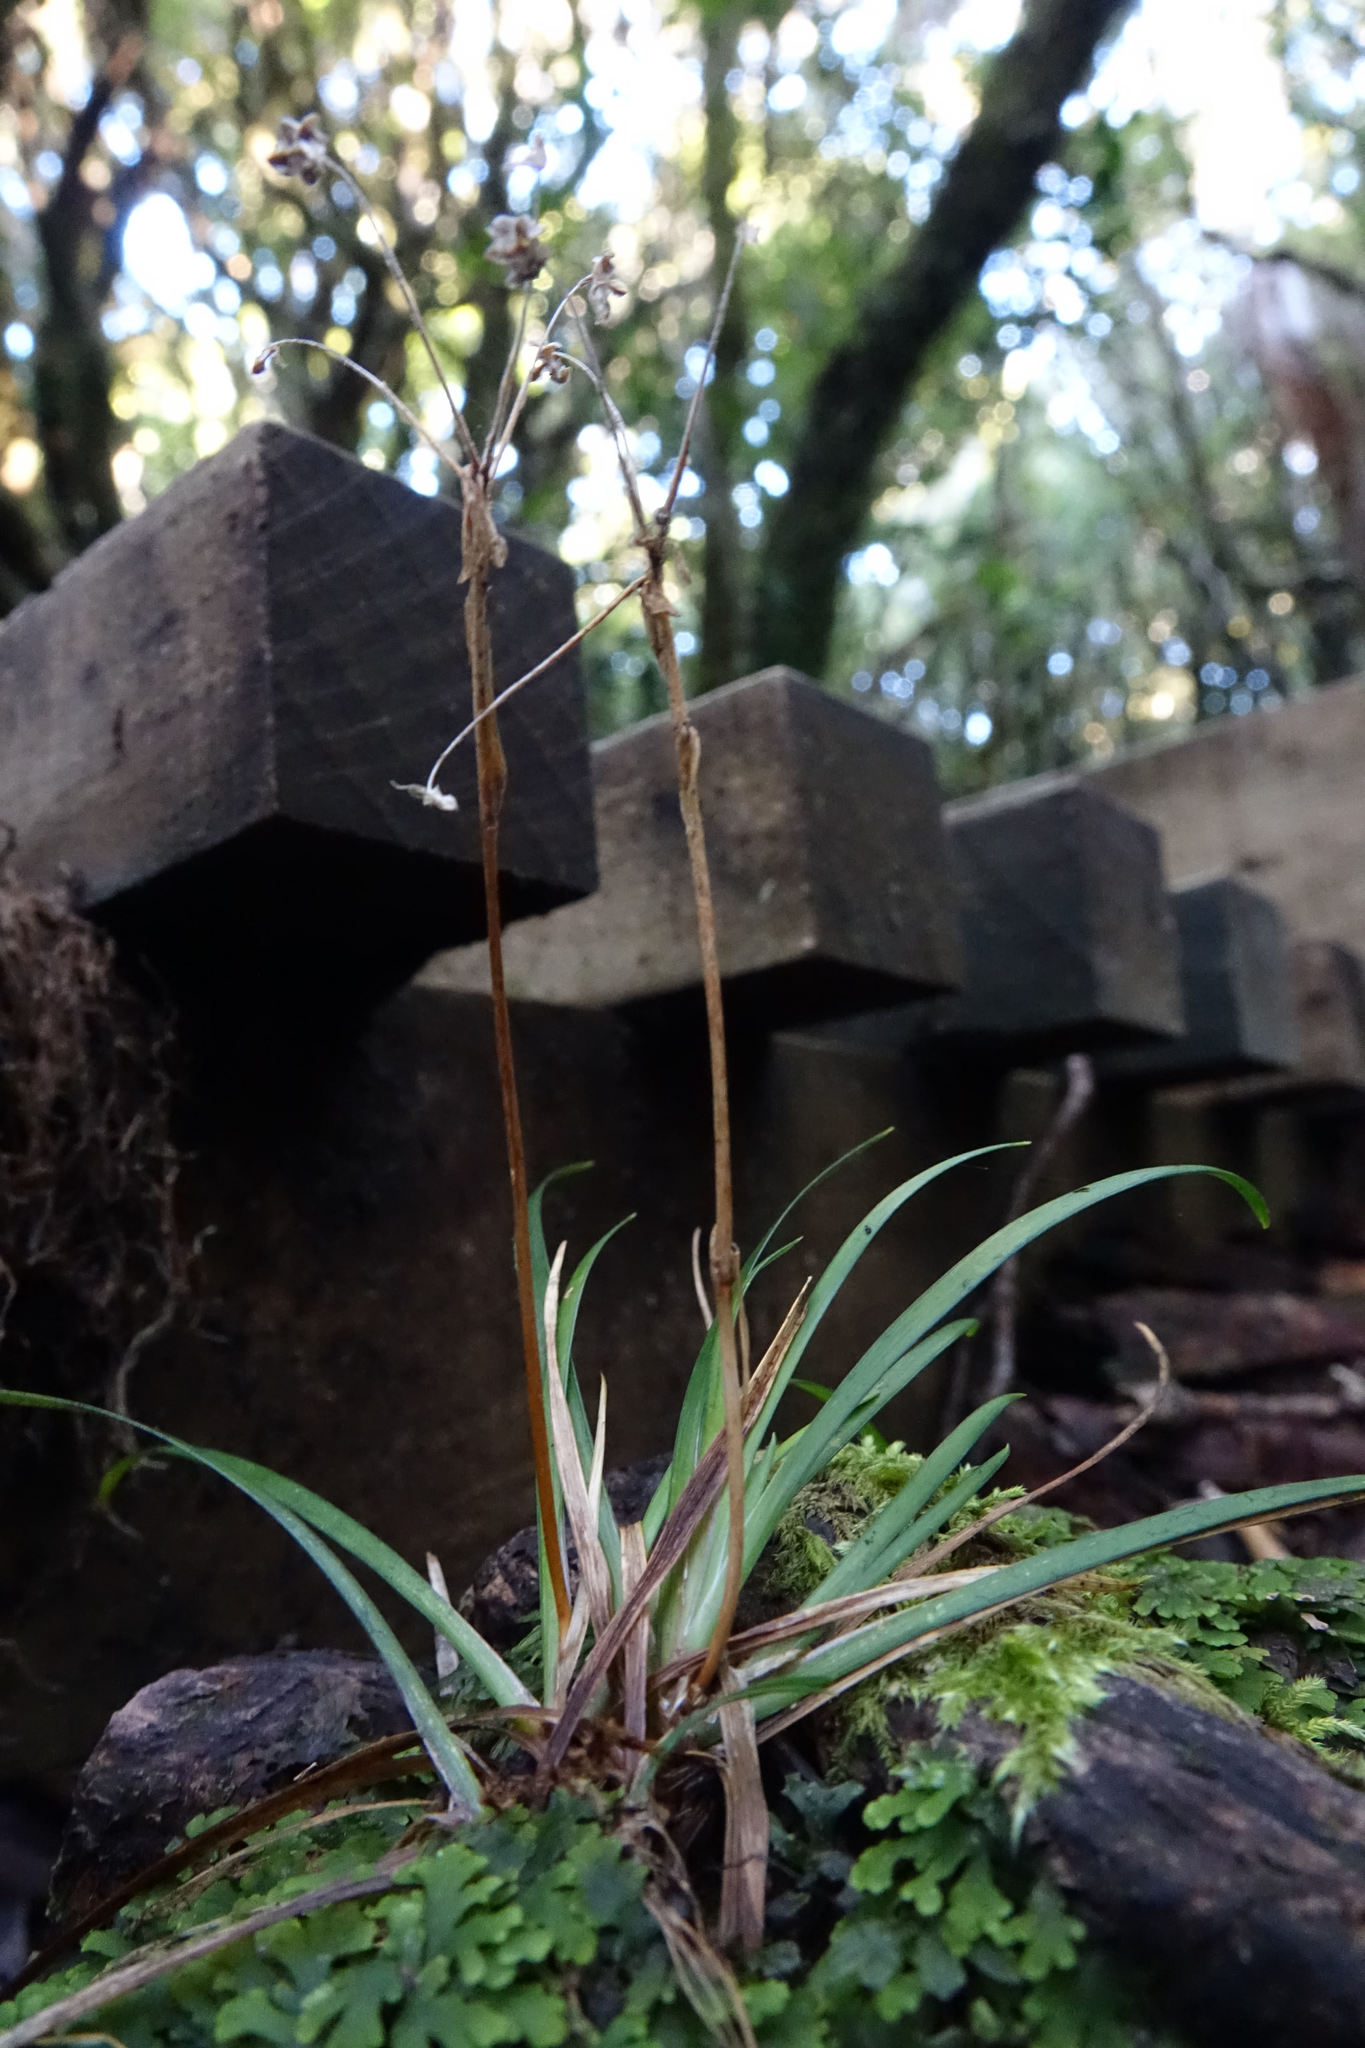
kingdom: Plantae
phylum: Tracheophyta
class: Liliopsida
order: Asparagales
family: Iridaceae
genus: Libertia
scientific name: Libertia micrantha
